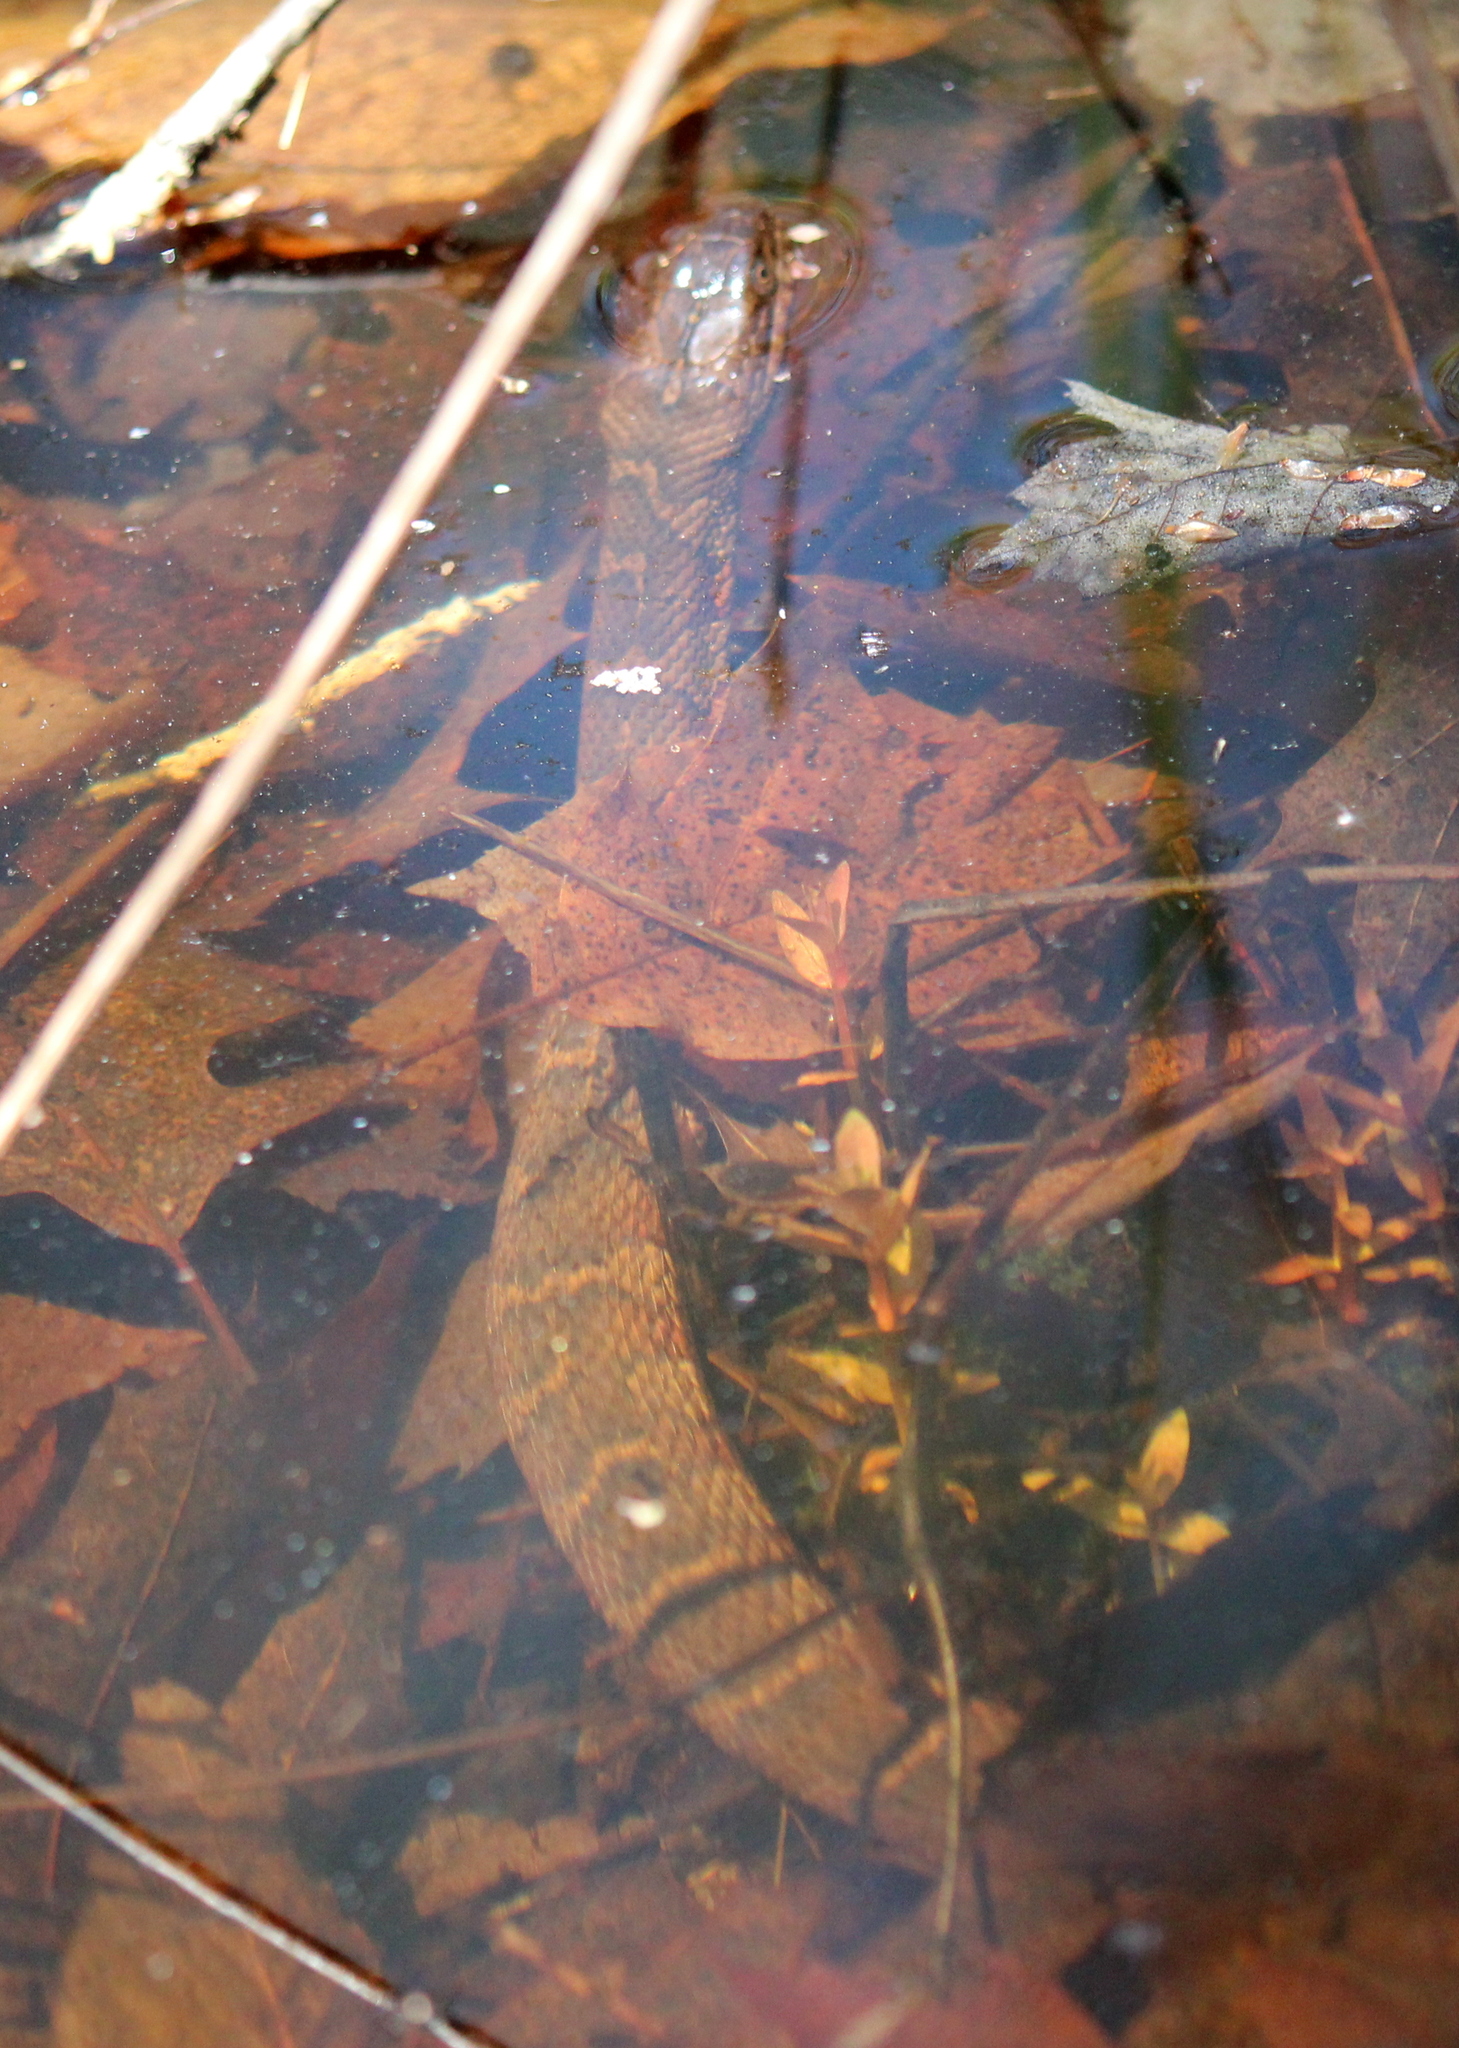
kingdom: Animalia
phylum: Chordata
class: Squamata
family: Colubridae
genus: Nerodia
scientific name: Nerodia sipedon
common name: Northern water snake
